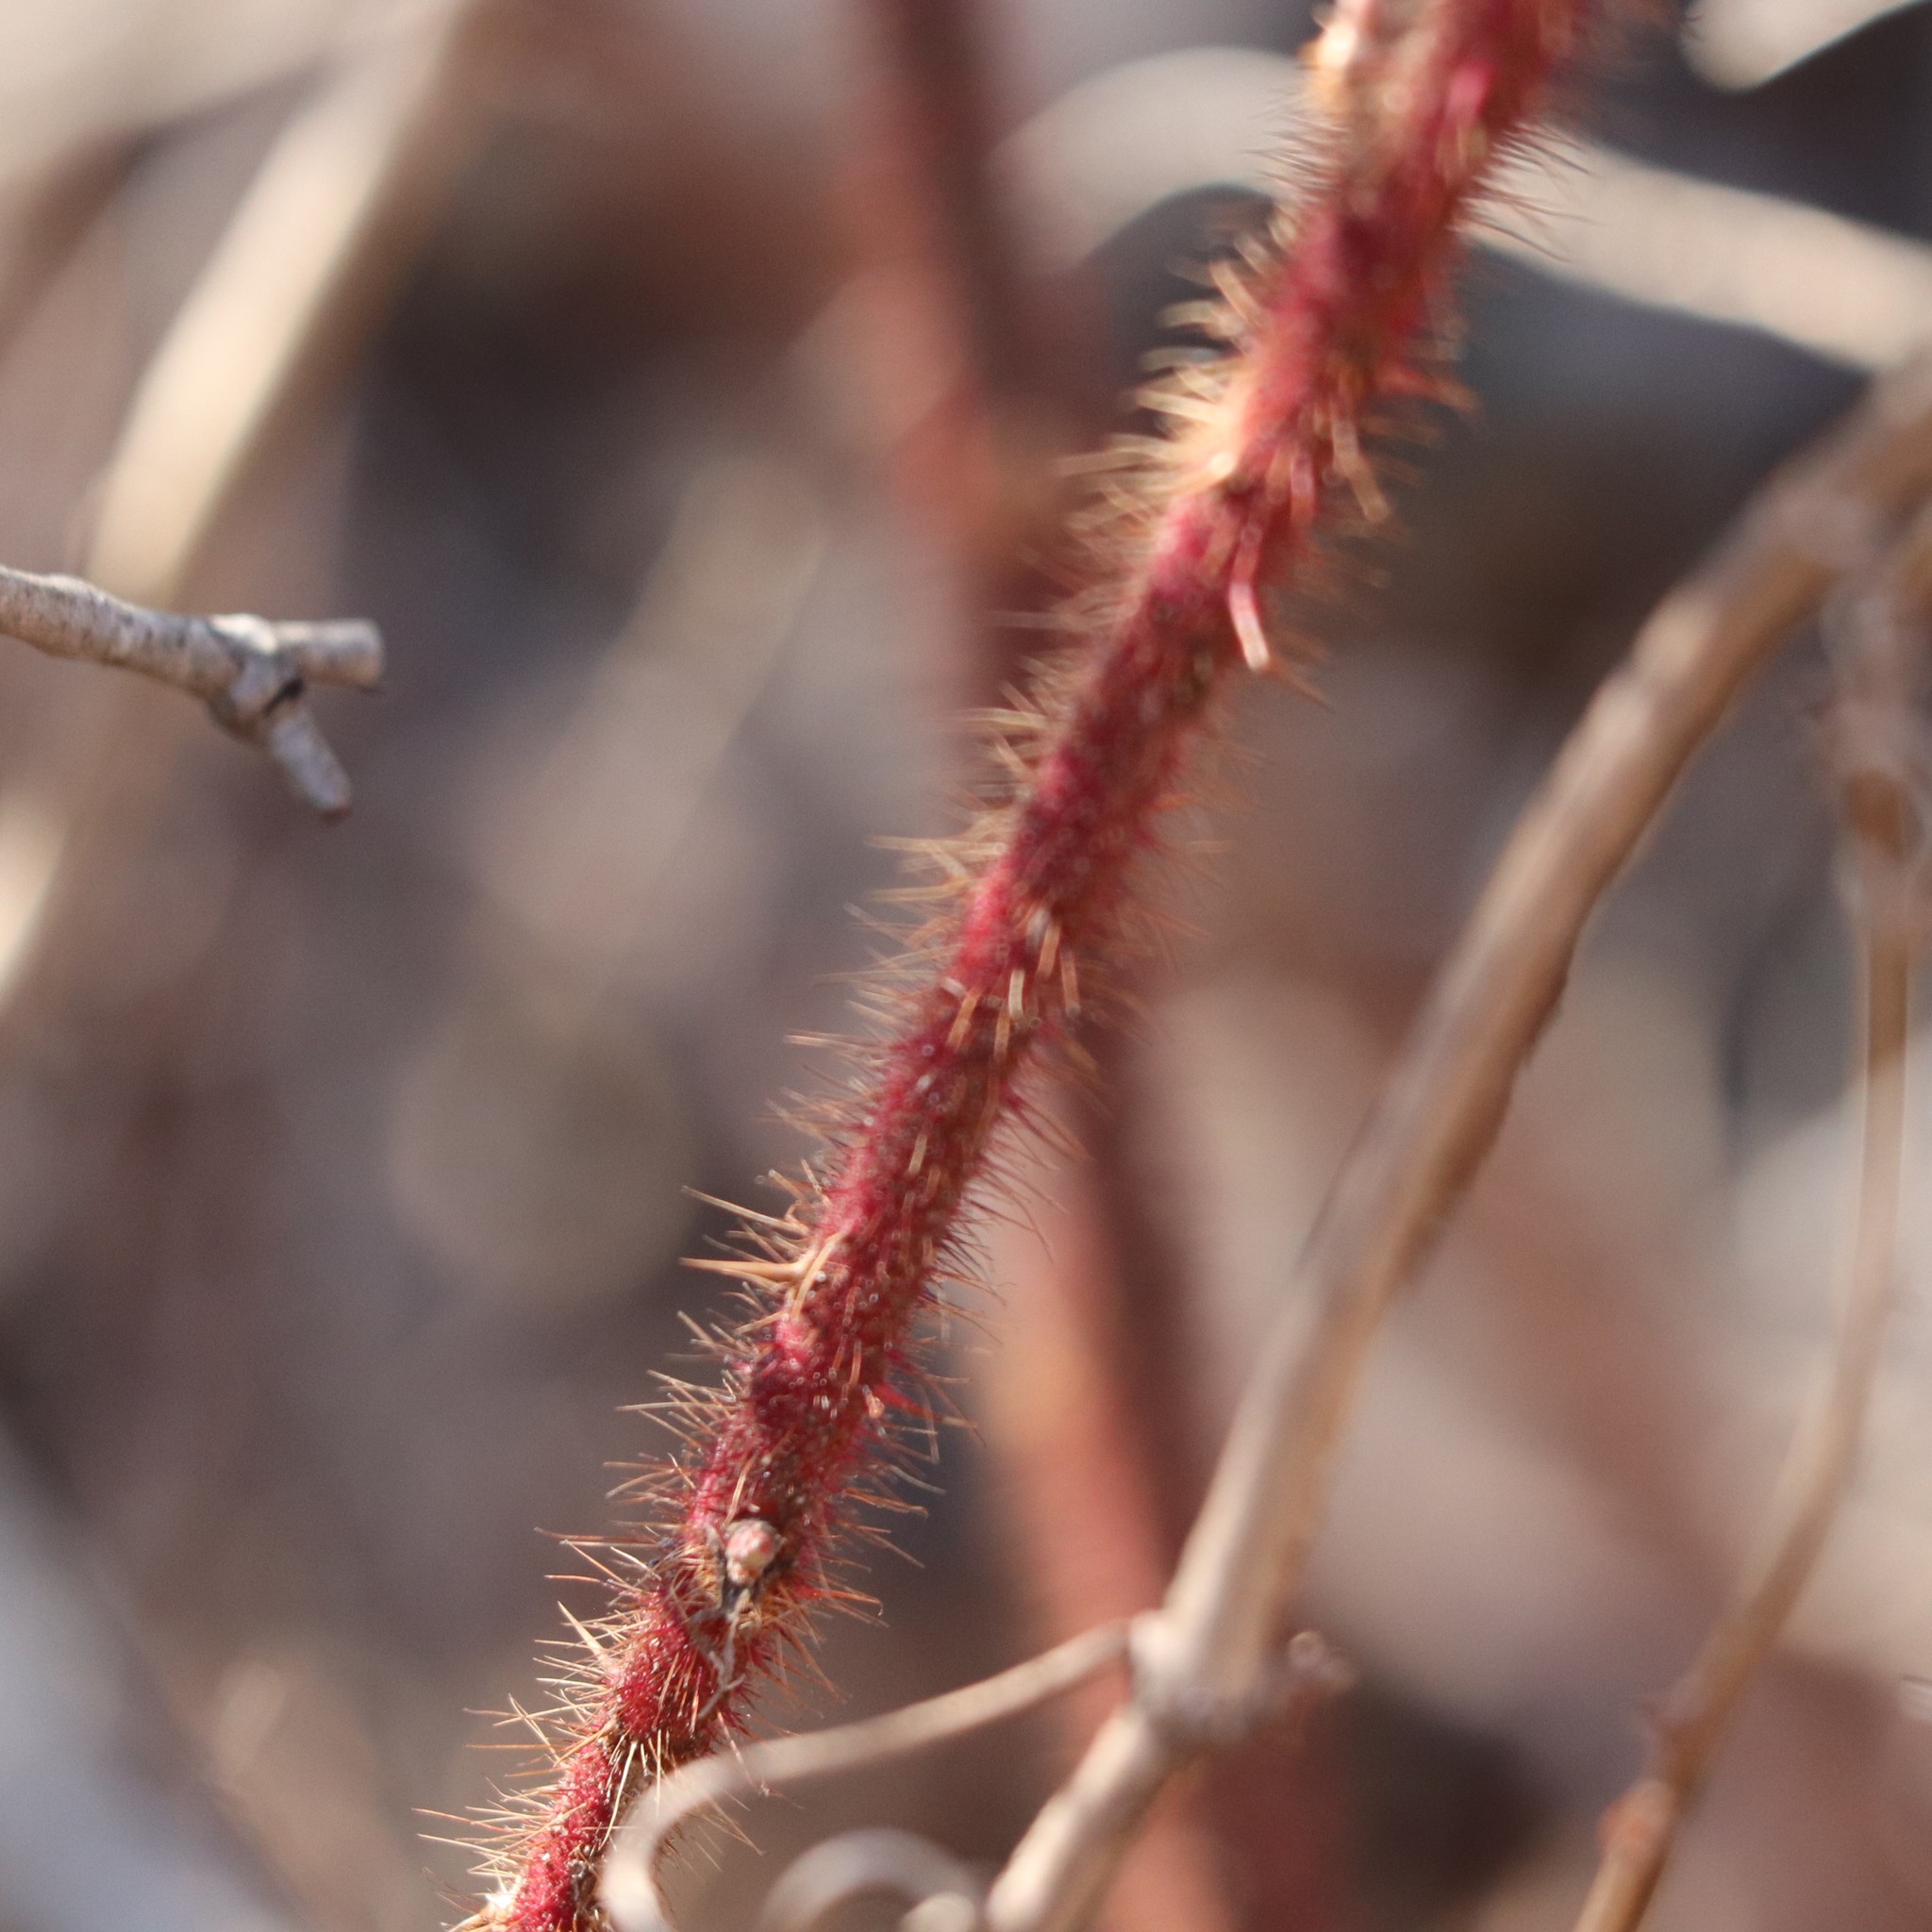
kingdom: Plantae
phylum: Tracheophyta
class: Magnoliopsida
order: Rosales
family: Rosaceae
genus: Rubus
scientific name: Rubus phoenicolasius
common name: Japanese wineberry
